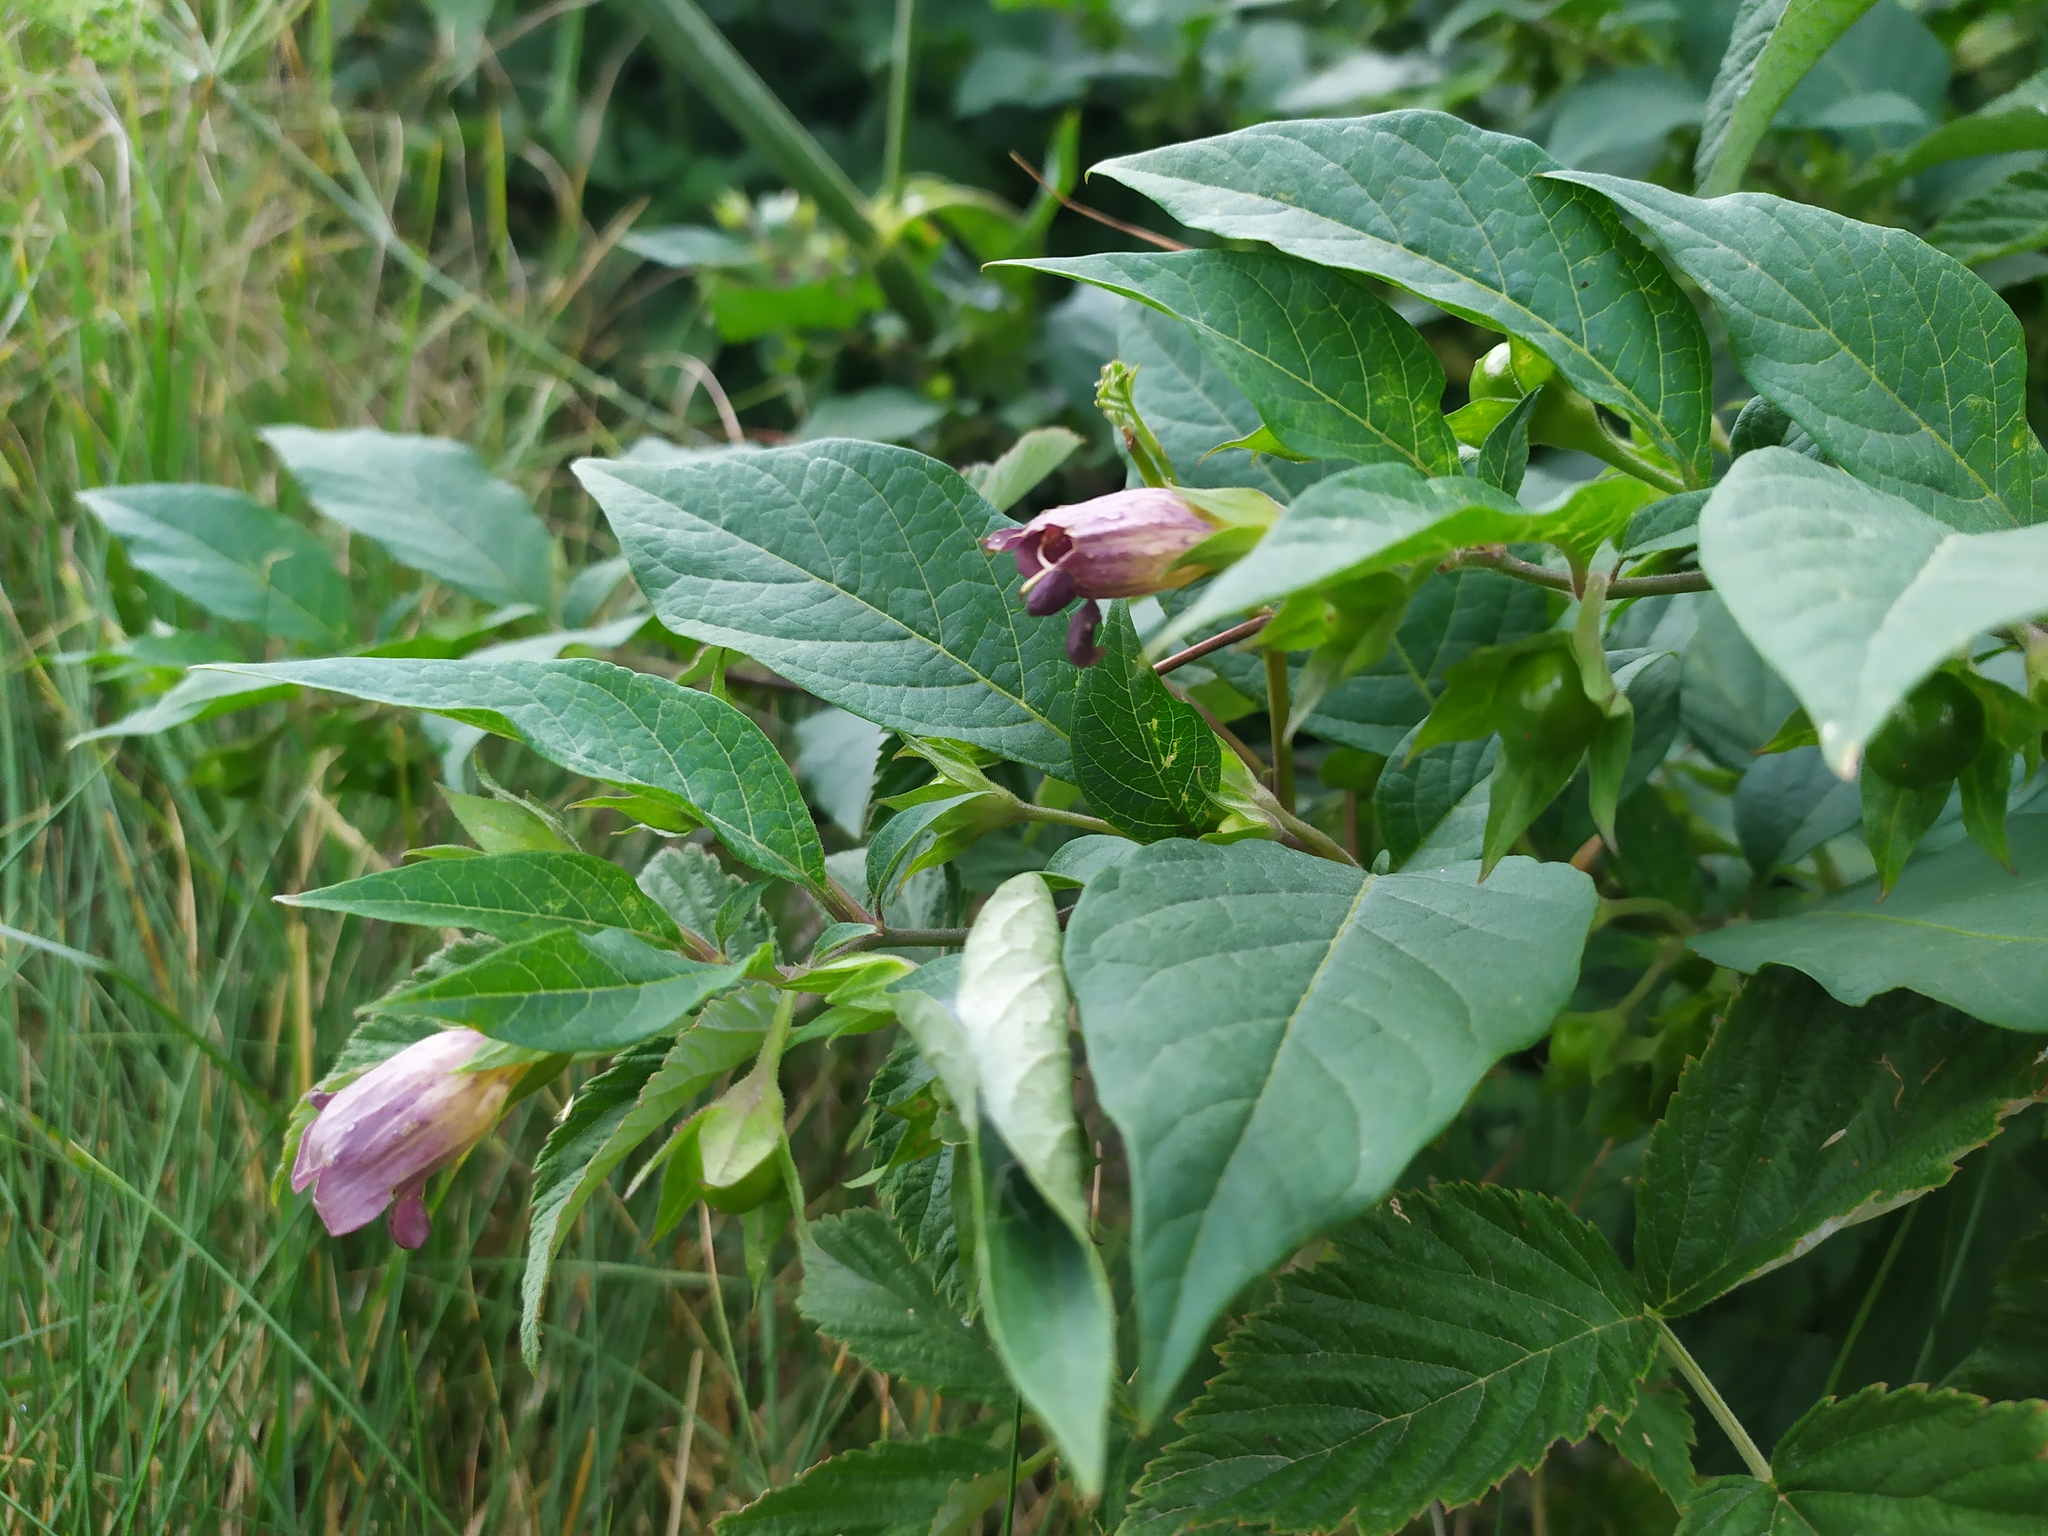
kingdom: Plantae
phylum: Tracheophyta
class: Magnoliopsida
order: Solanales
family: Solanaceae
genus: Atropa
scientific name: Atropa belladonna
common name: Deadly nightshade
